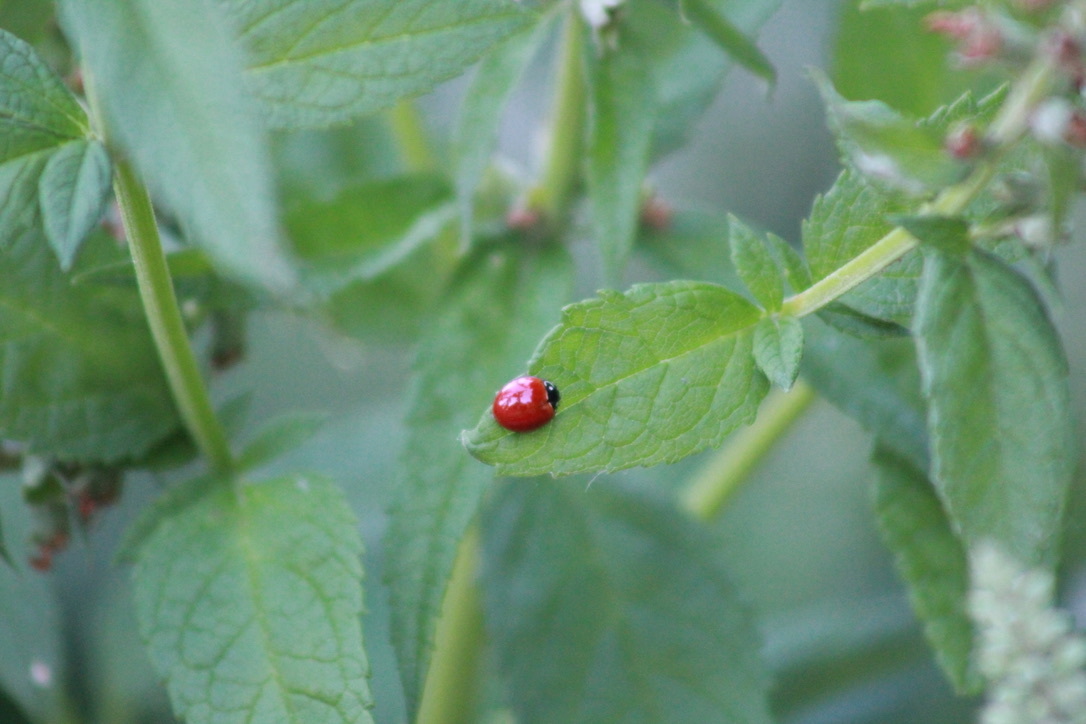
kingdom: Animalia
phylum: Arthropoda
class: Insecta
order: Coleoptera
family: Coccinellidae
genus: Cycloneda
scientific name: Cycloneda sanguinea
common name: Ladybird beetle
